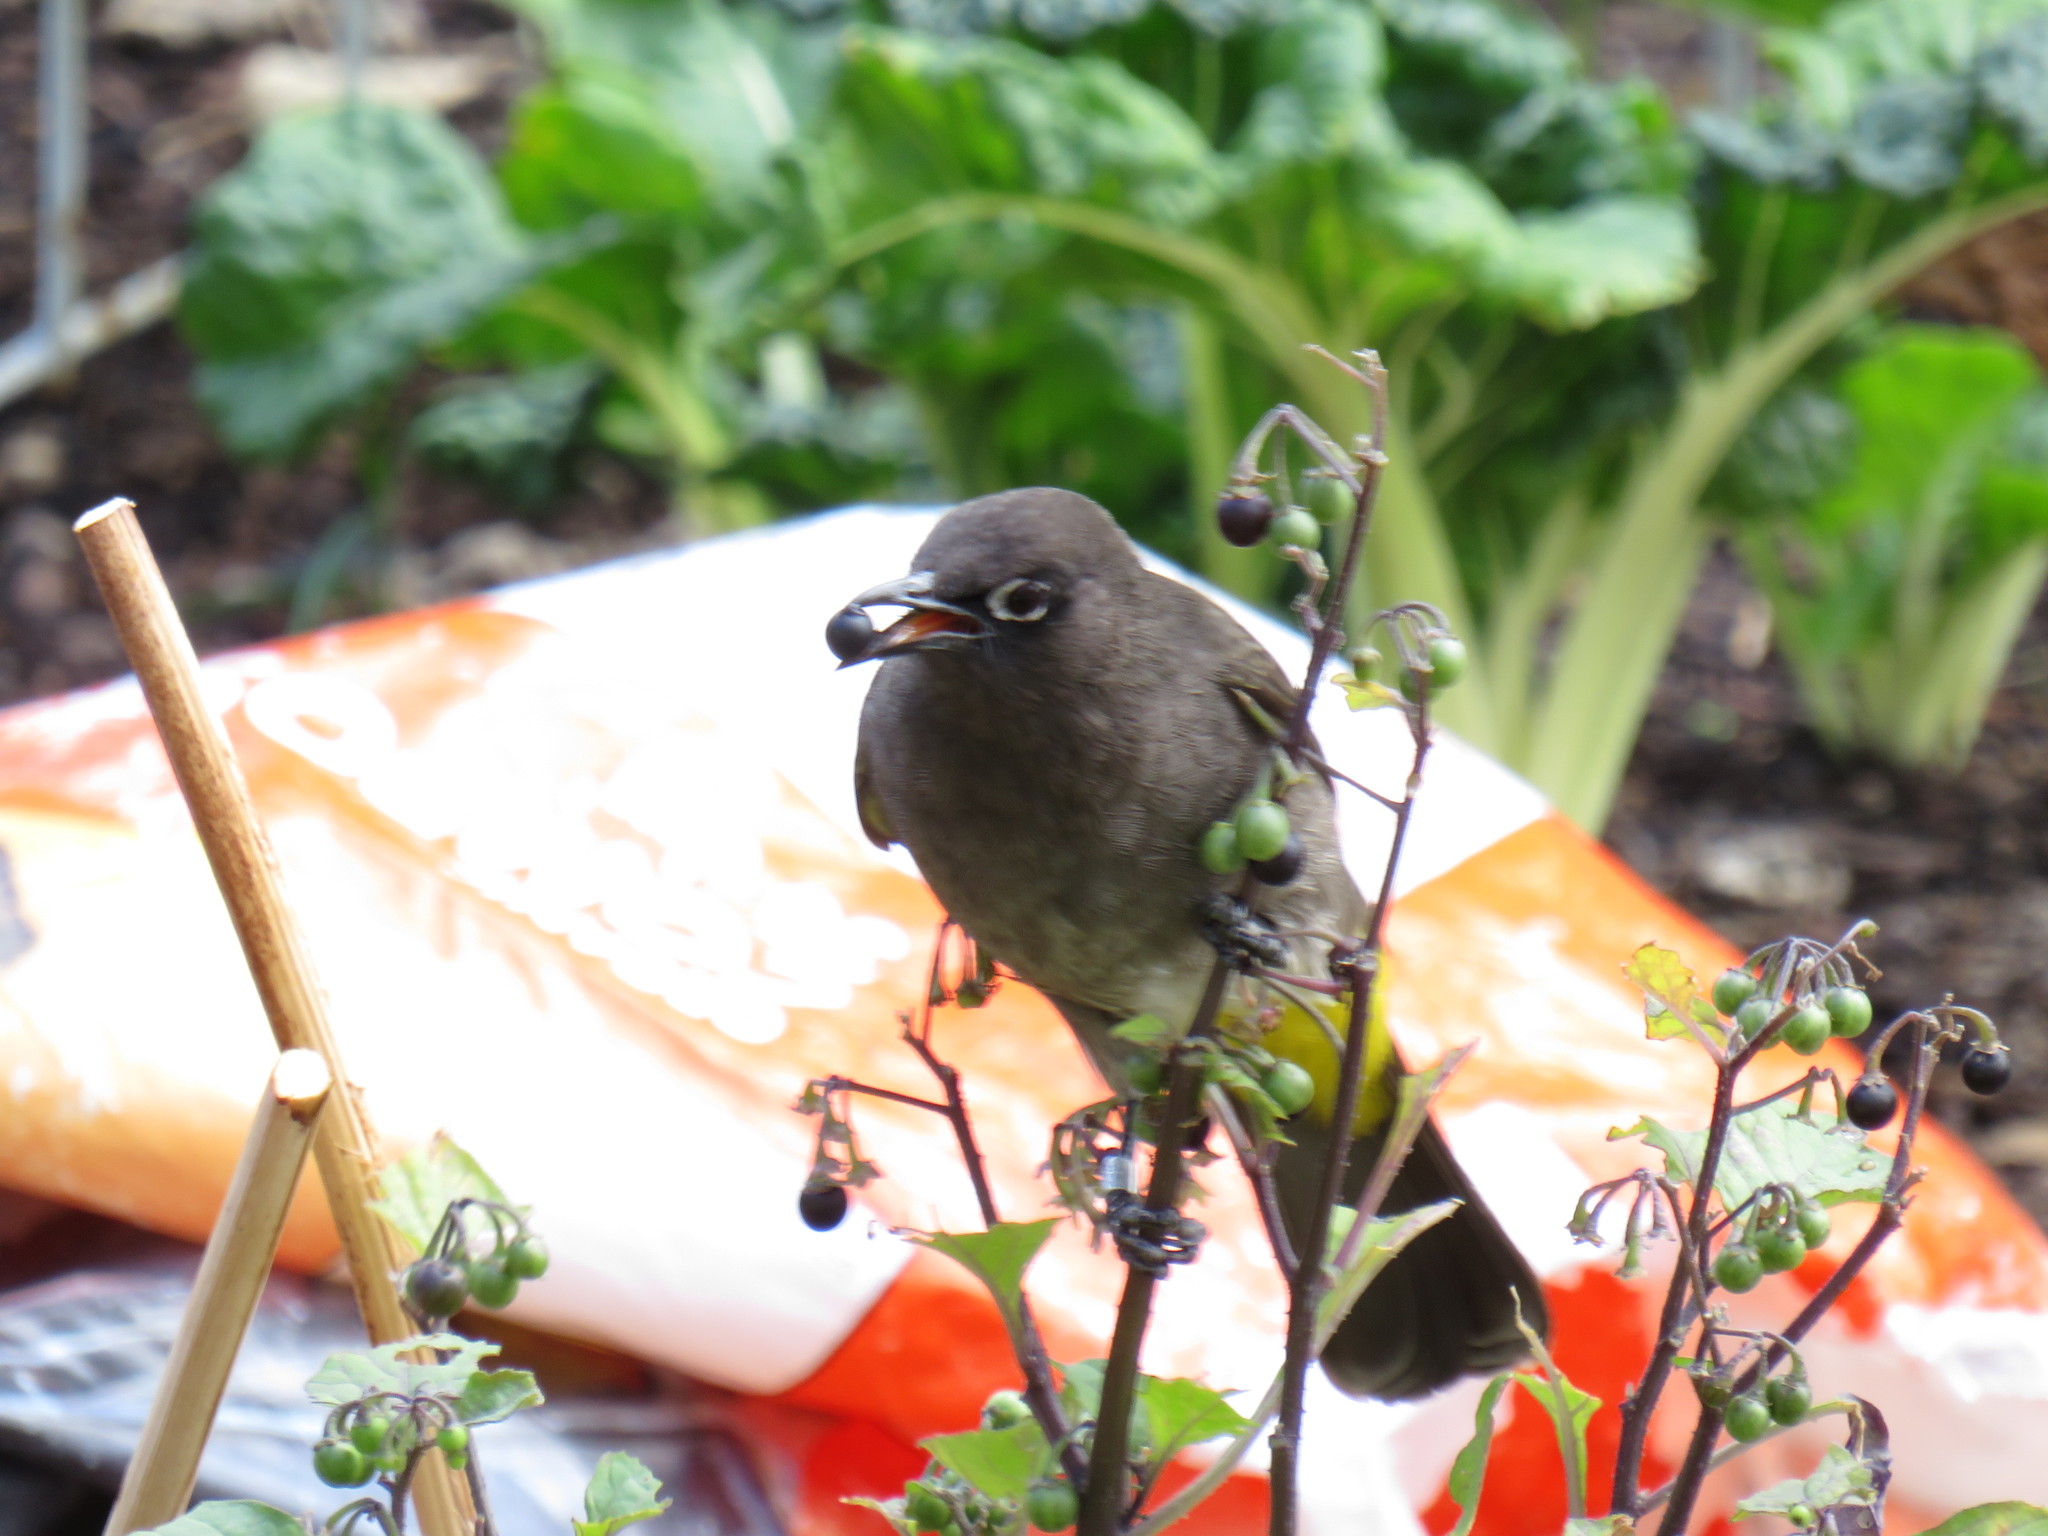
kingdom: Animalia
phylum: Chordata
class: Aves
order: Passeriformes
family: Pycnonotidae
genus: Pycnonotus
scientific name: Pycnonotus capensis
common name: Cape bulbul
